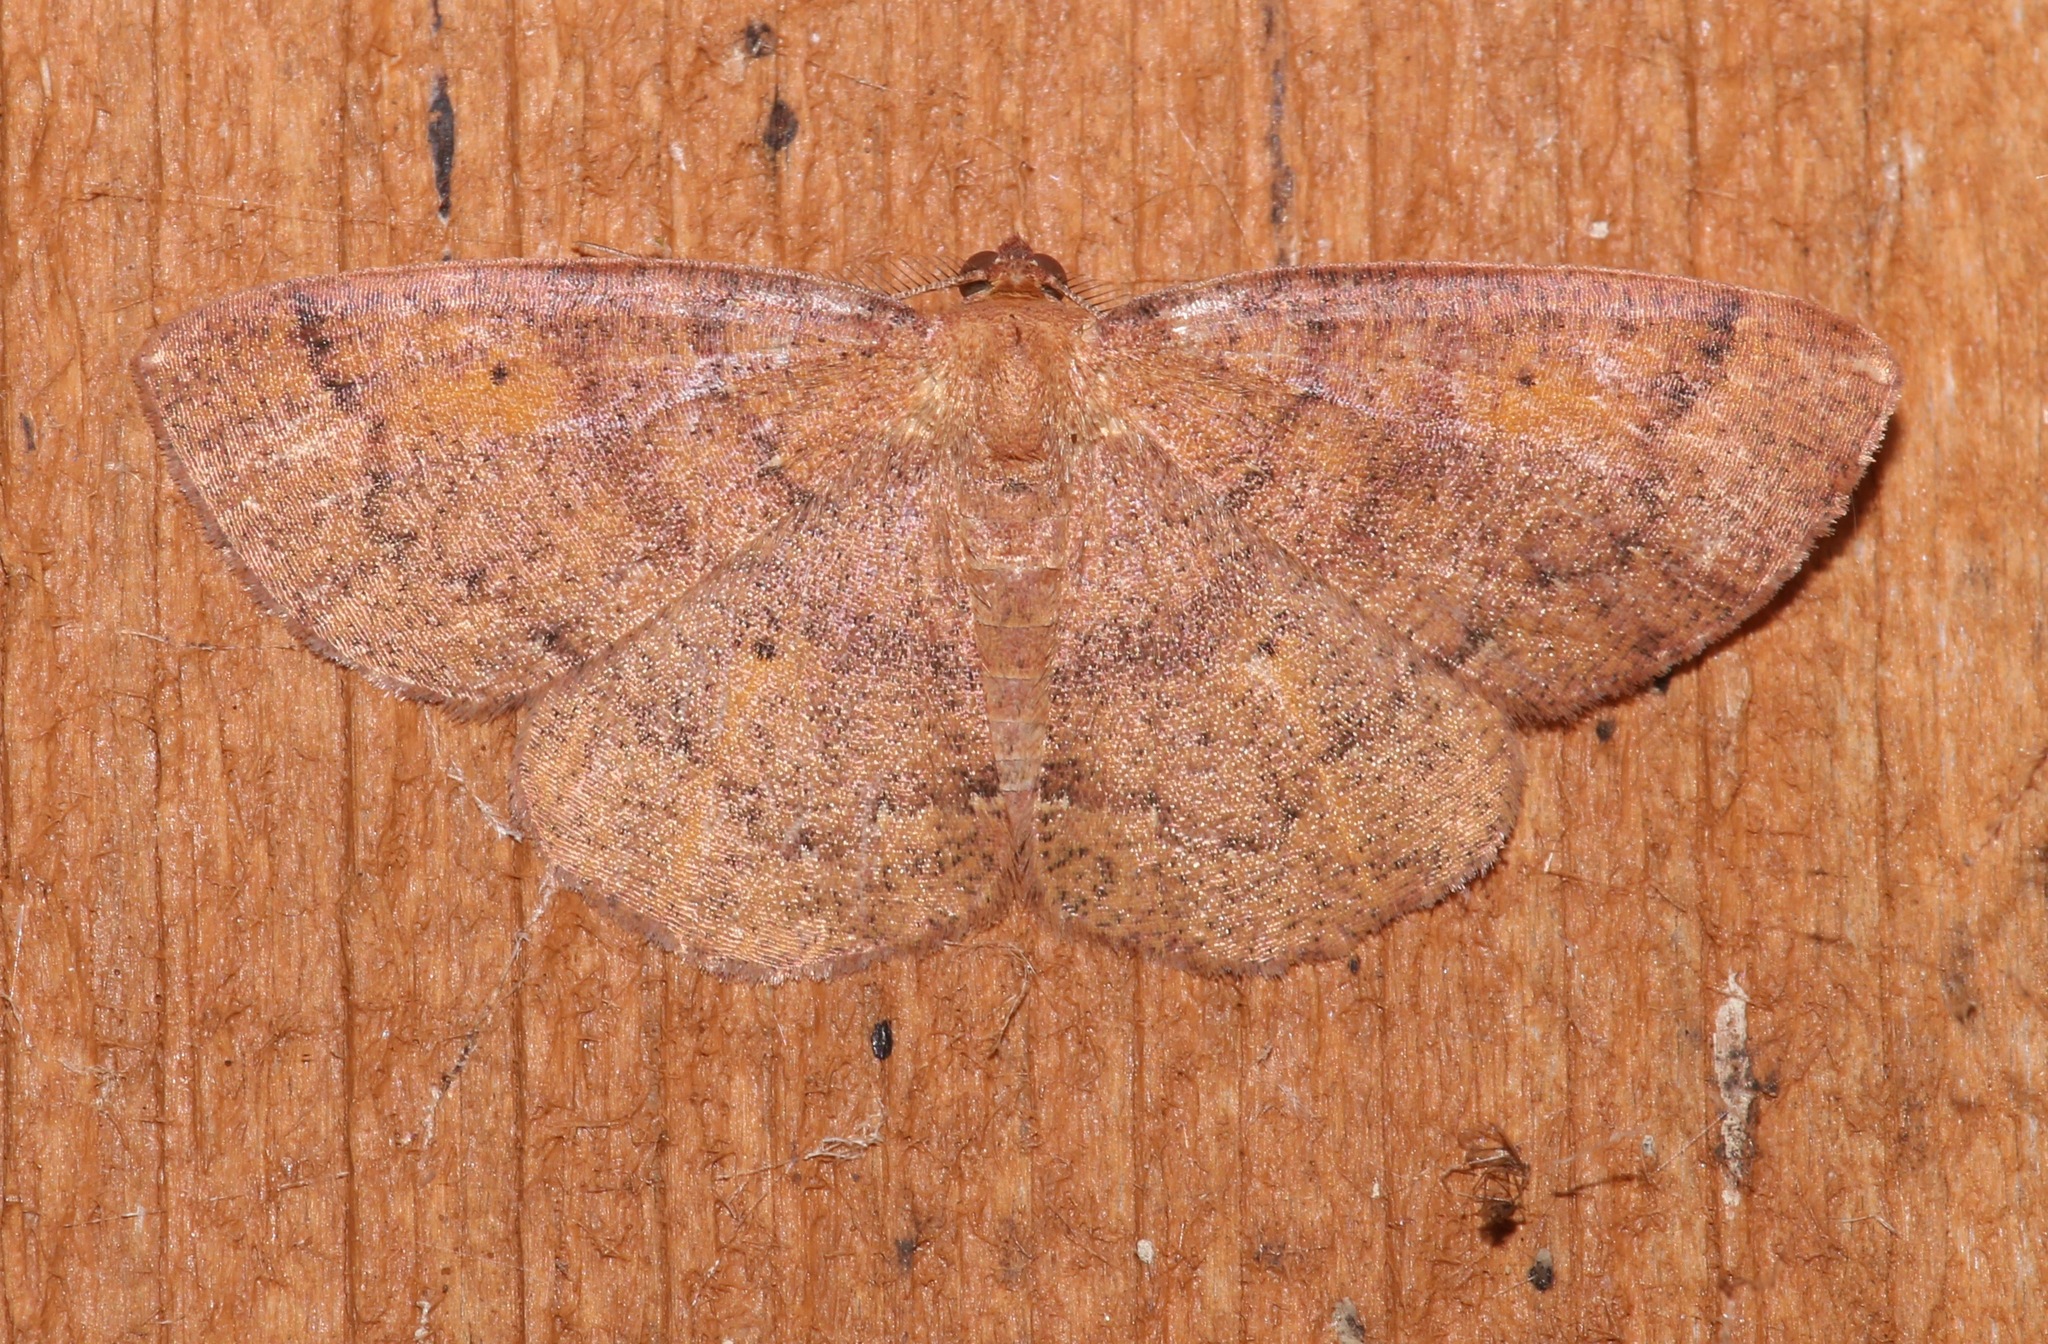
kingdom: Animalia
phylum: Arthropoda
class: Insecta
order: Lepidoptera
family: Geometridae
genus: Ilexia
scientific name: Ilexia intractata
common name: Black-dotted ruddy moth
